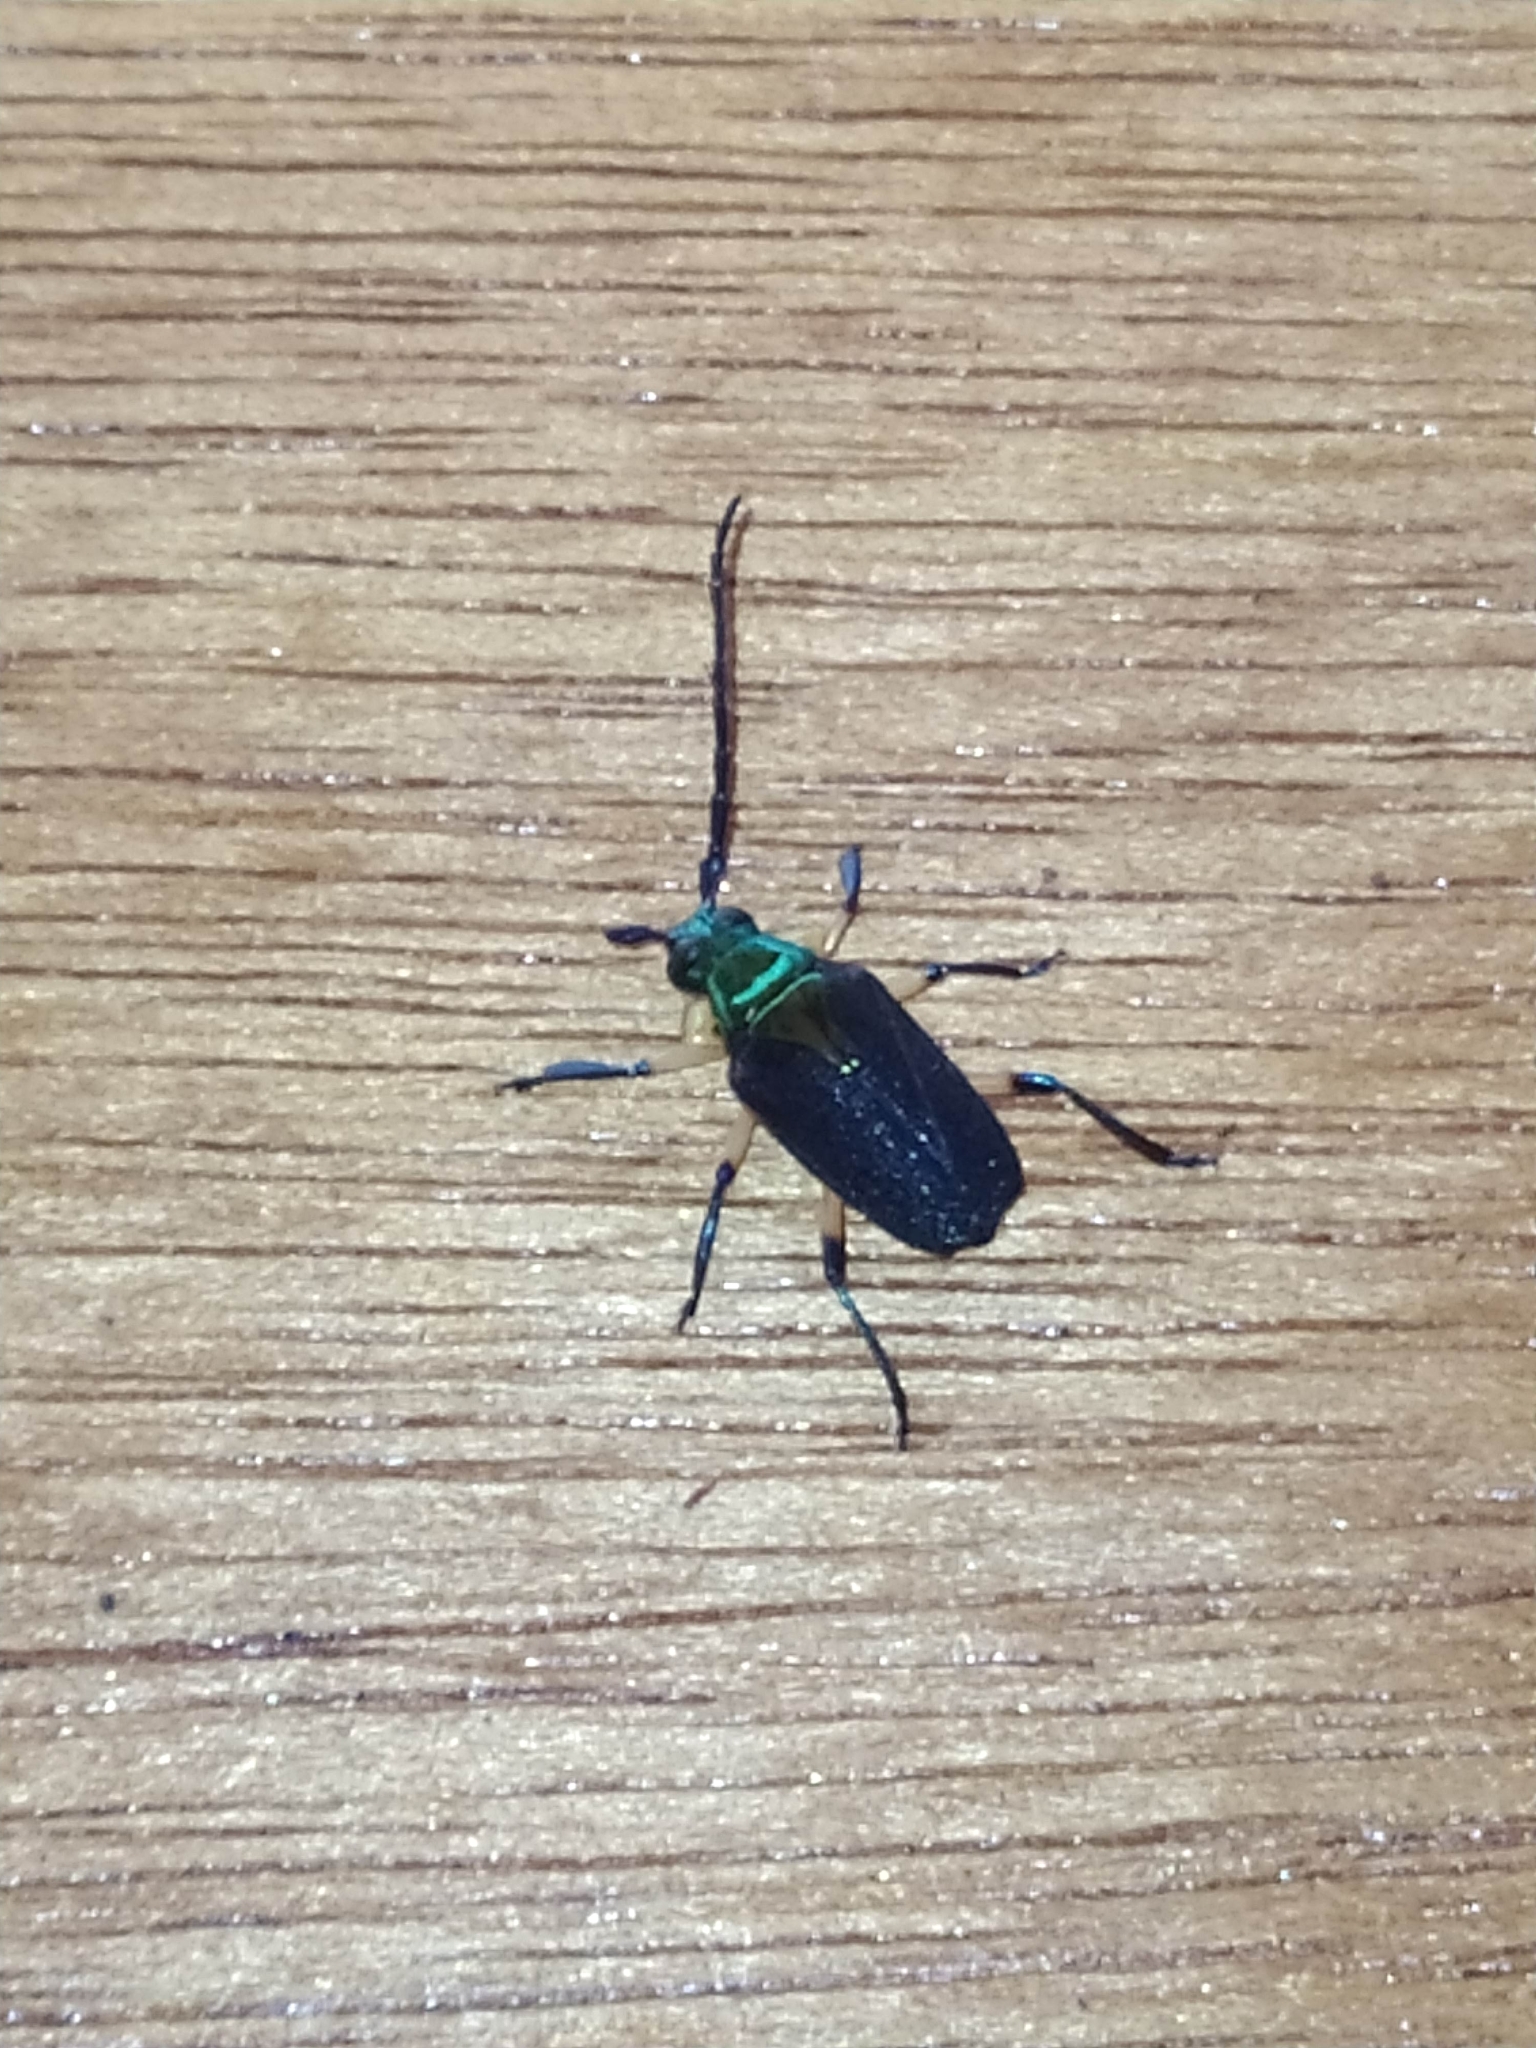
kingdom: Animalia
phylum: Arthropoda
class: Insecta
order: Coleoptera
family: Cerambycidae
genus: Esmeralda
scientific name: Esmeralda coerulea
